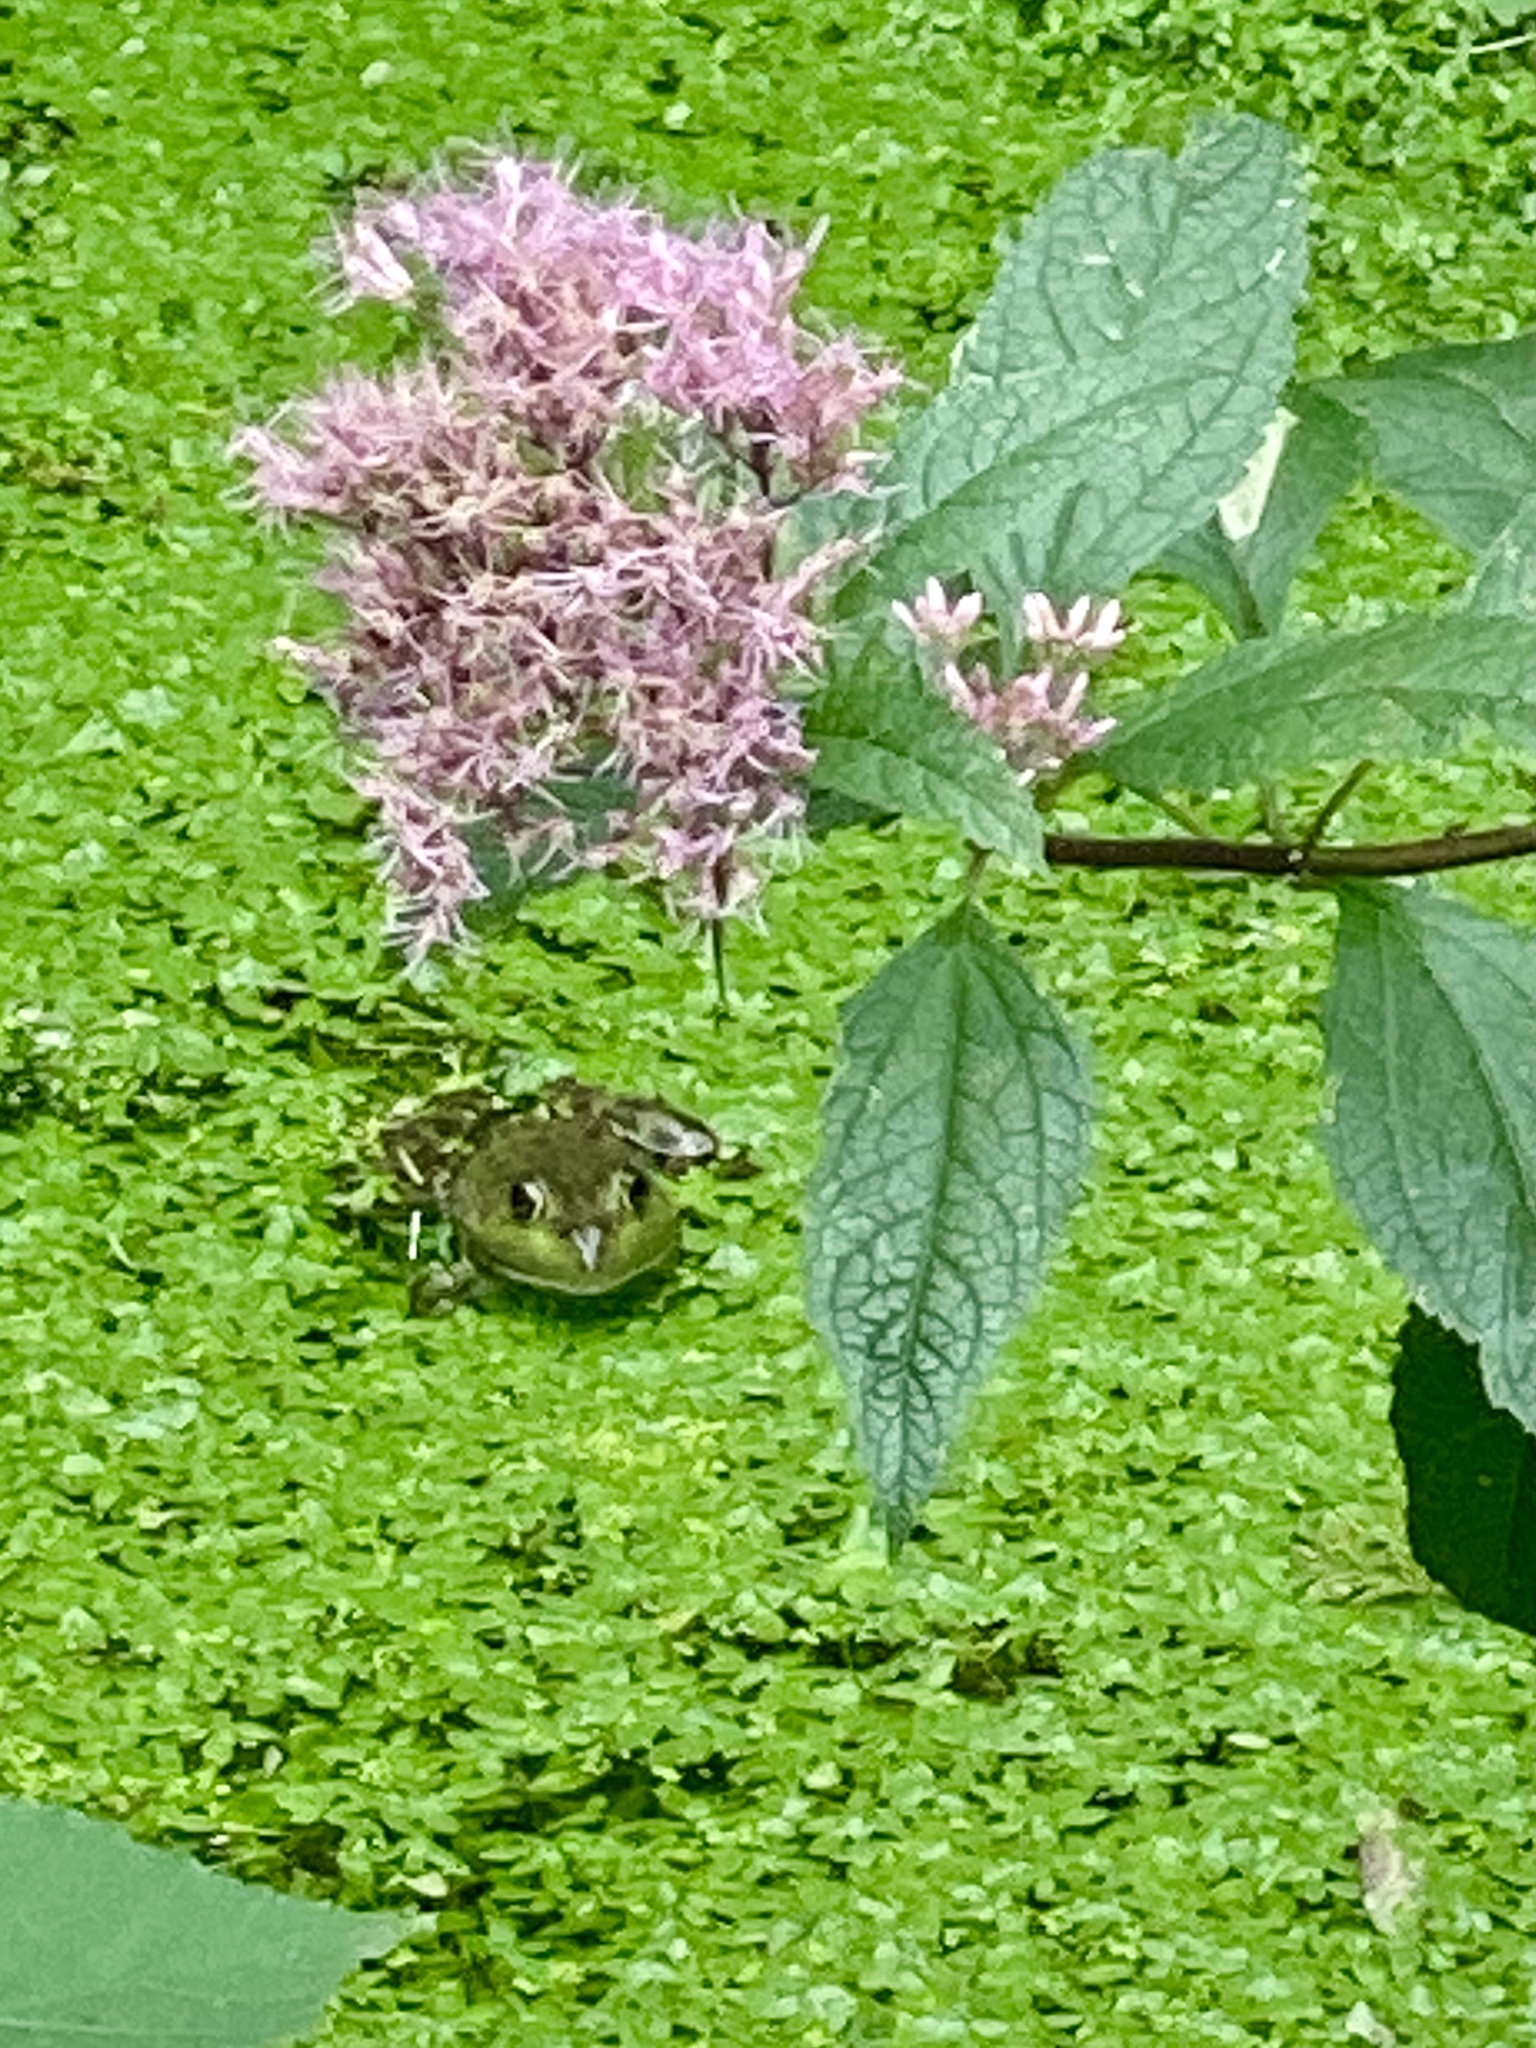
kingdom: Animalia
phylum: Chordata
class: Amphibia
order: Anura
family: Ranidae
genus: Lithobates
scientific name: Lithobates catesbeianus
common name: American bullfrog
